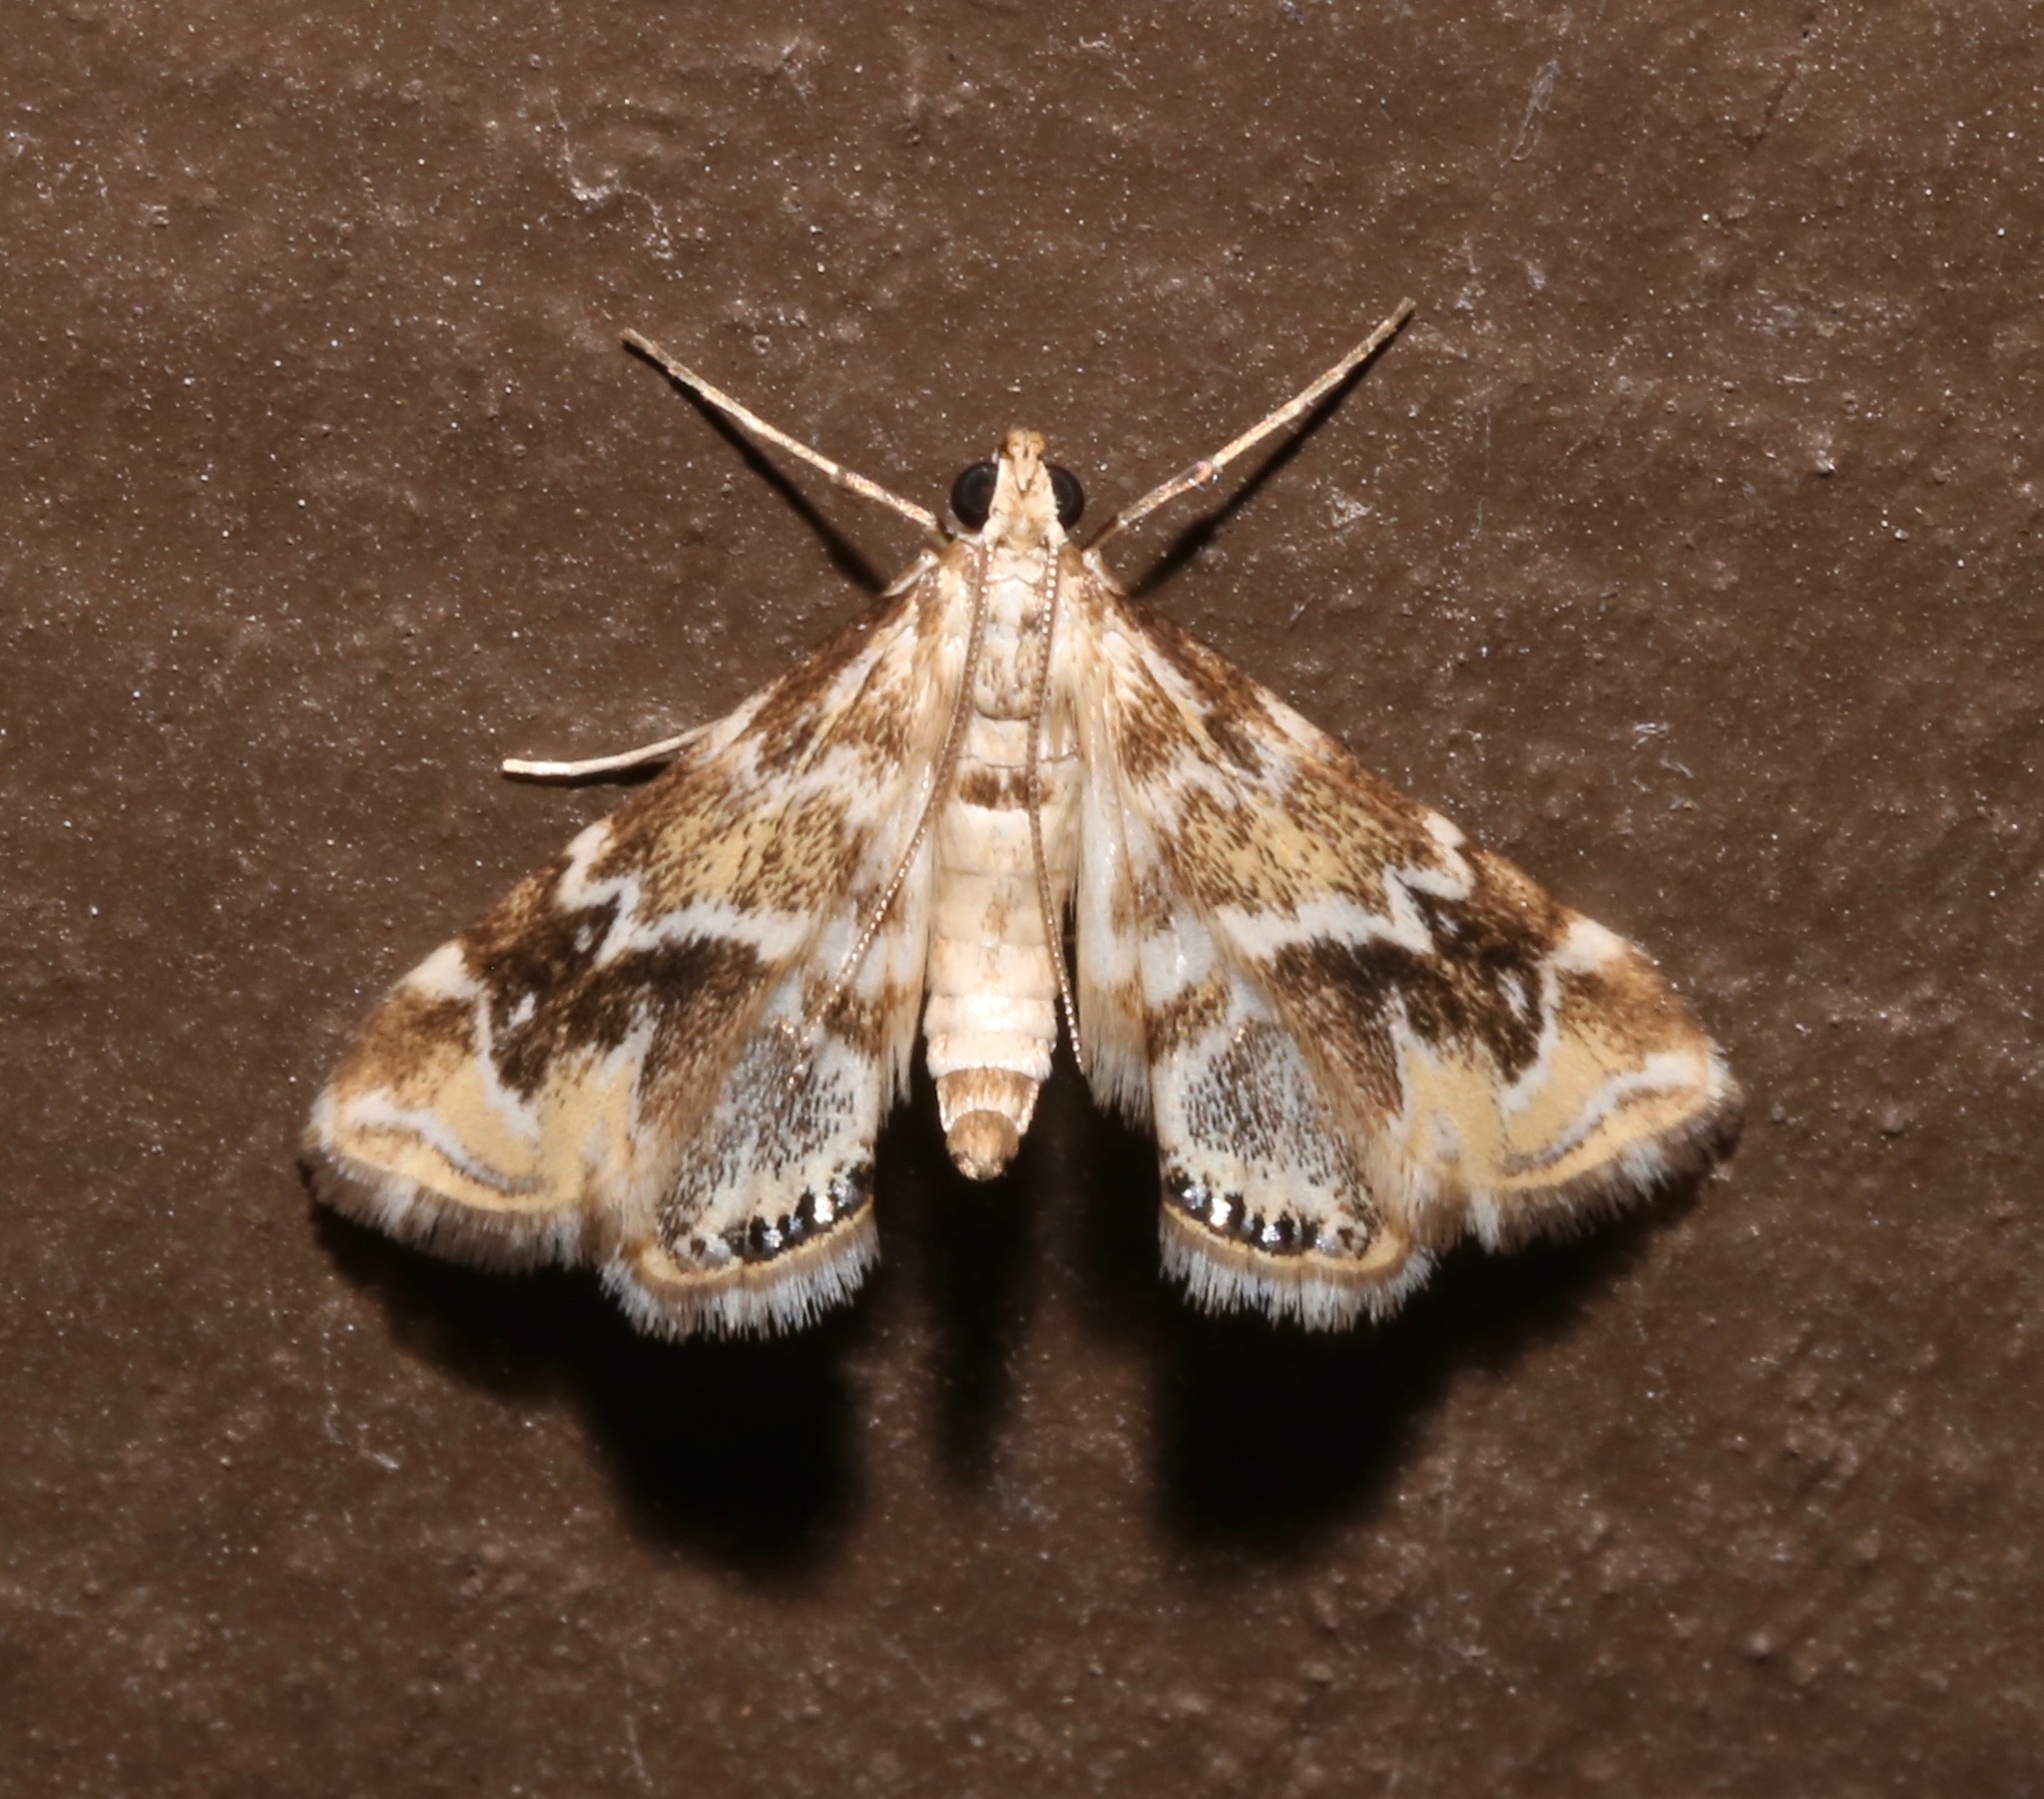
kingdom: Animalia
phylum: Arthropoda
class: Insecta
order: Lepidoptera
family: Crambidae
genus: Petrophila
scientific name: Petrophila avernalis
